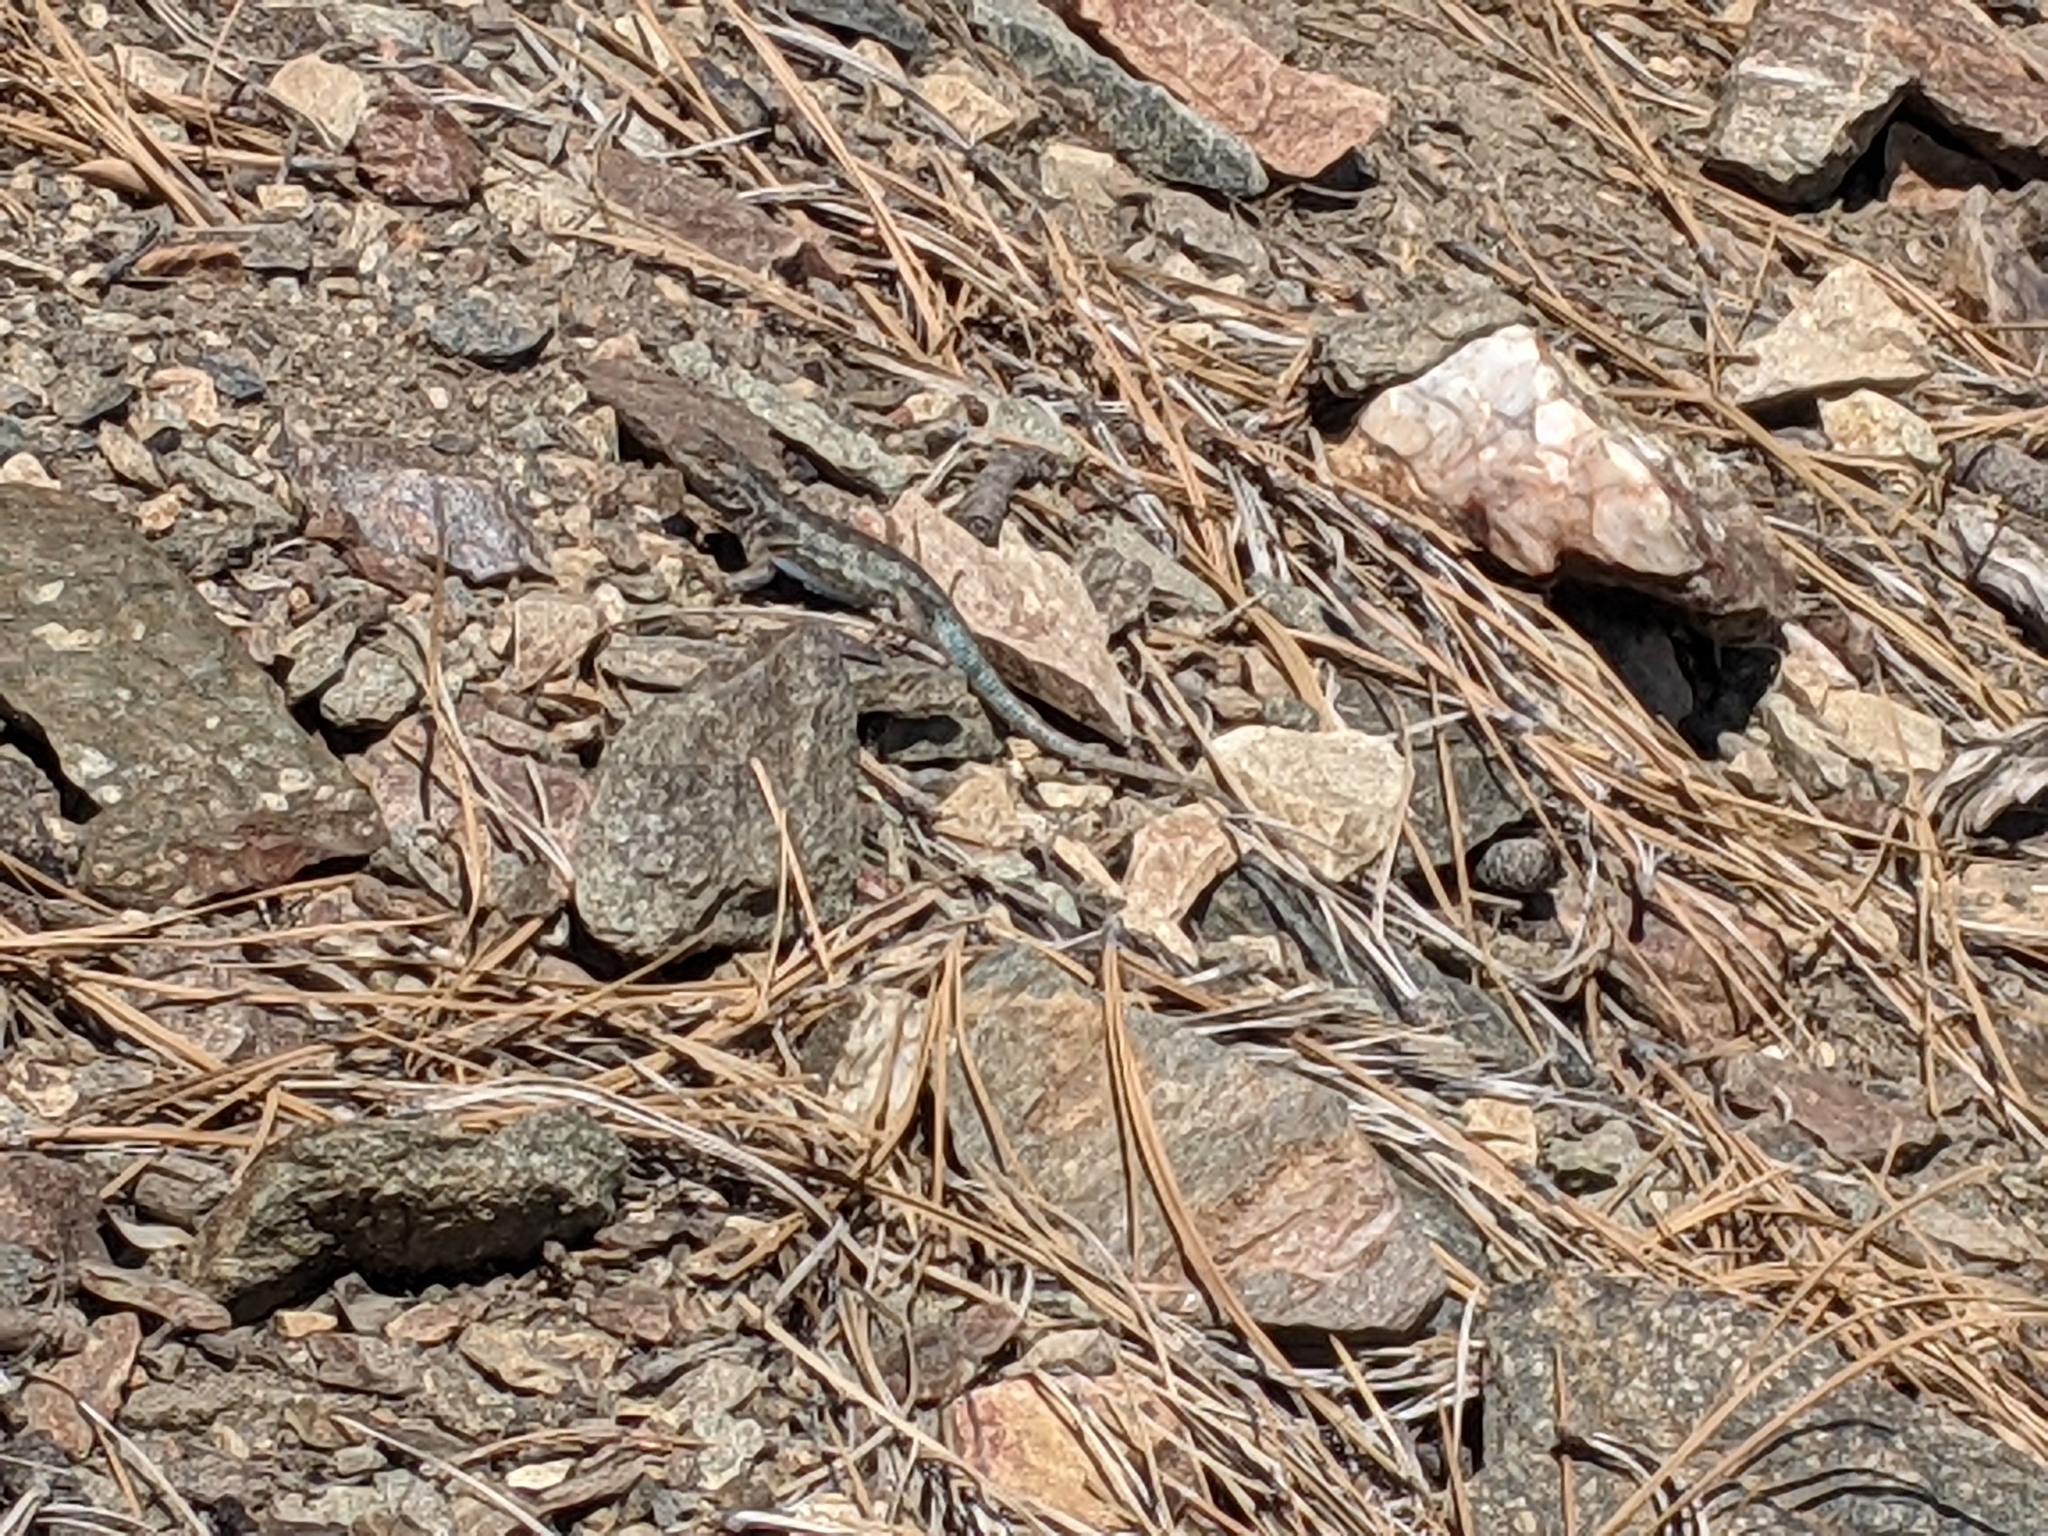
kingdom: Animalia
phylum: Chordata
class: Squamata
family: Phrynosomatidae
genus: Sceloporus
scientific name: Sceloporus graciosus
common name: Sagebrush lizard
